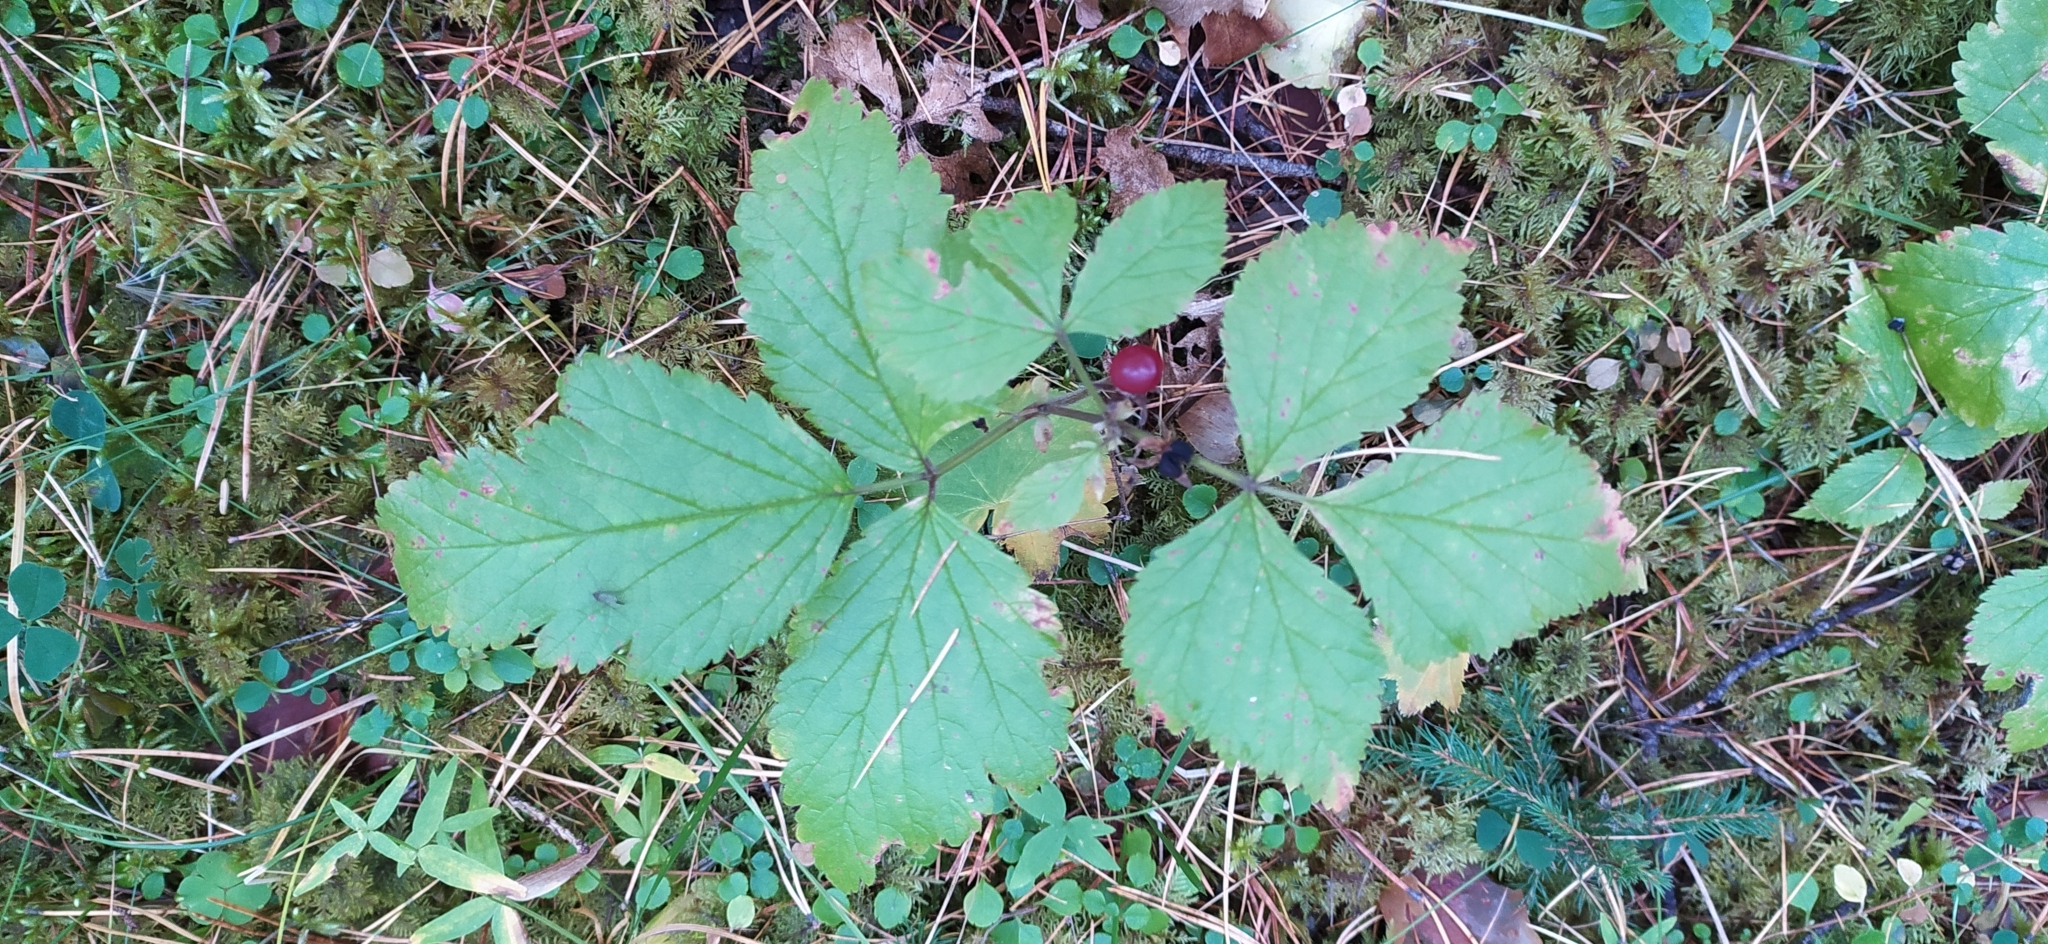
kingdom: Plantae
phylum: Tracheophyta
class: Magnoliopsida
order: Rosales
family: Rosaceae
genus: Rubus
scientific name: Rubus saxatilis
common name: Stone bramble
